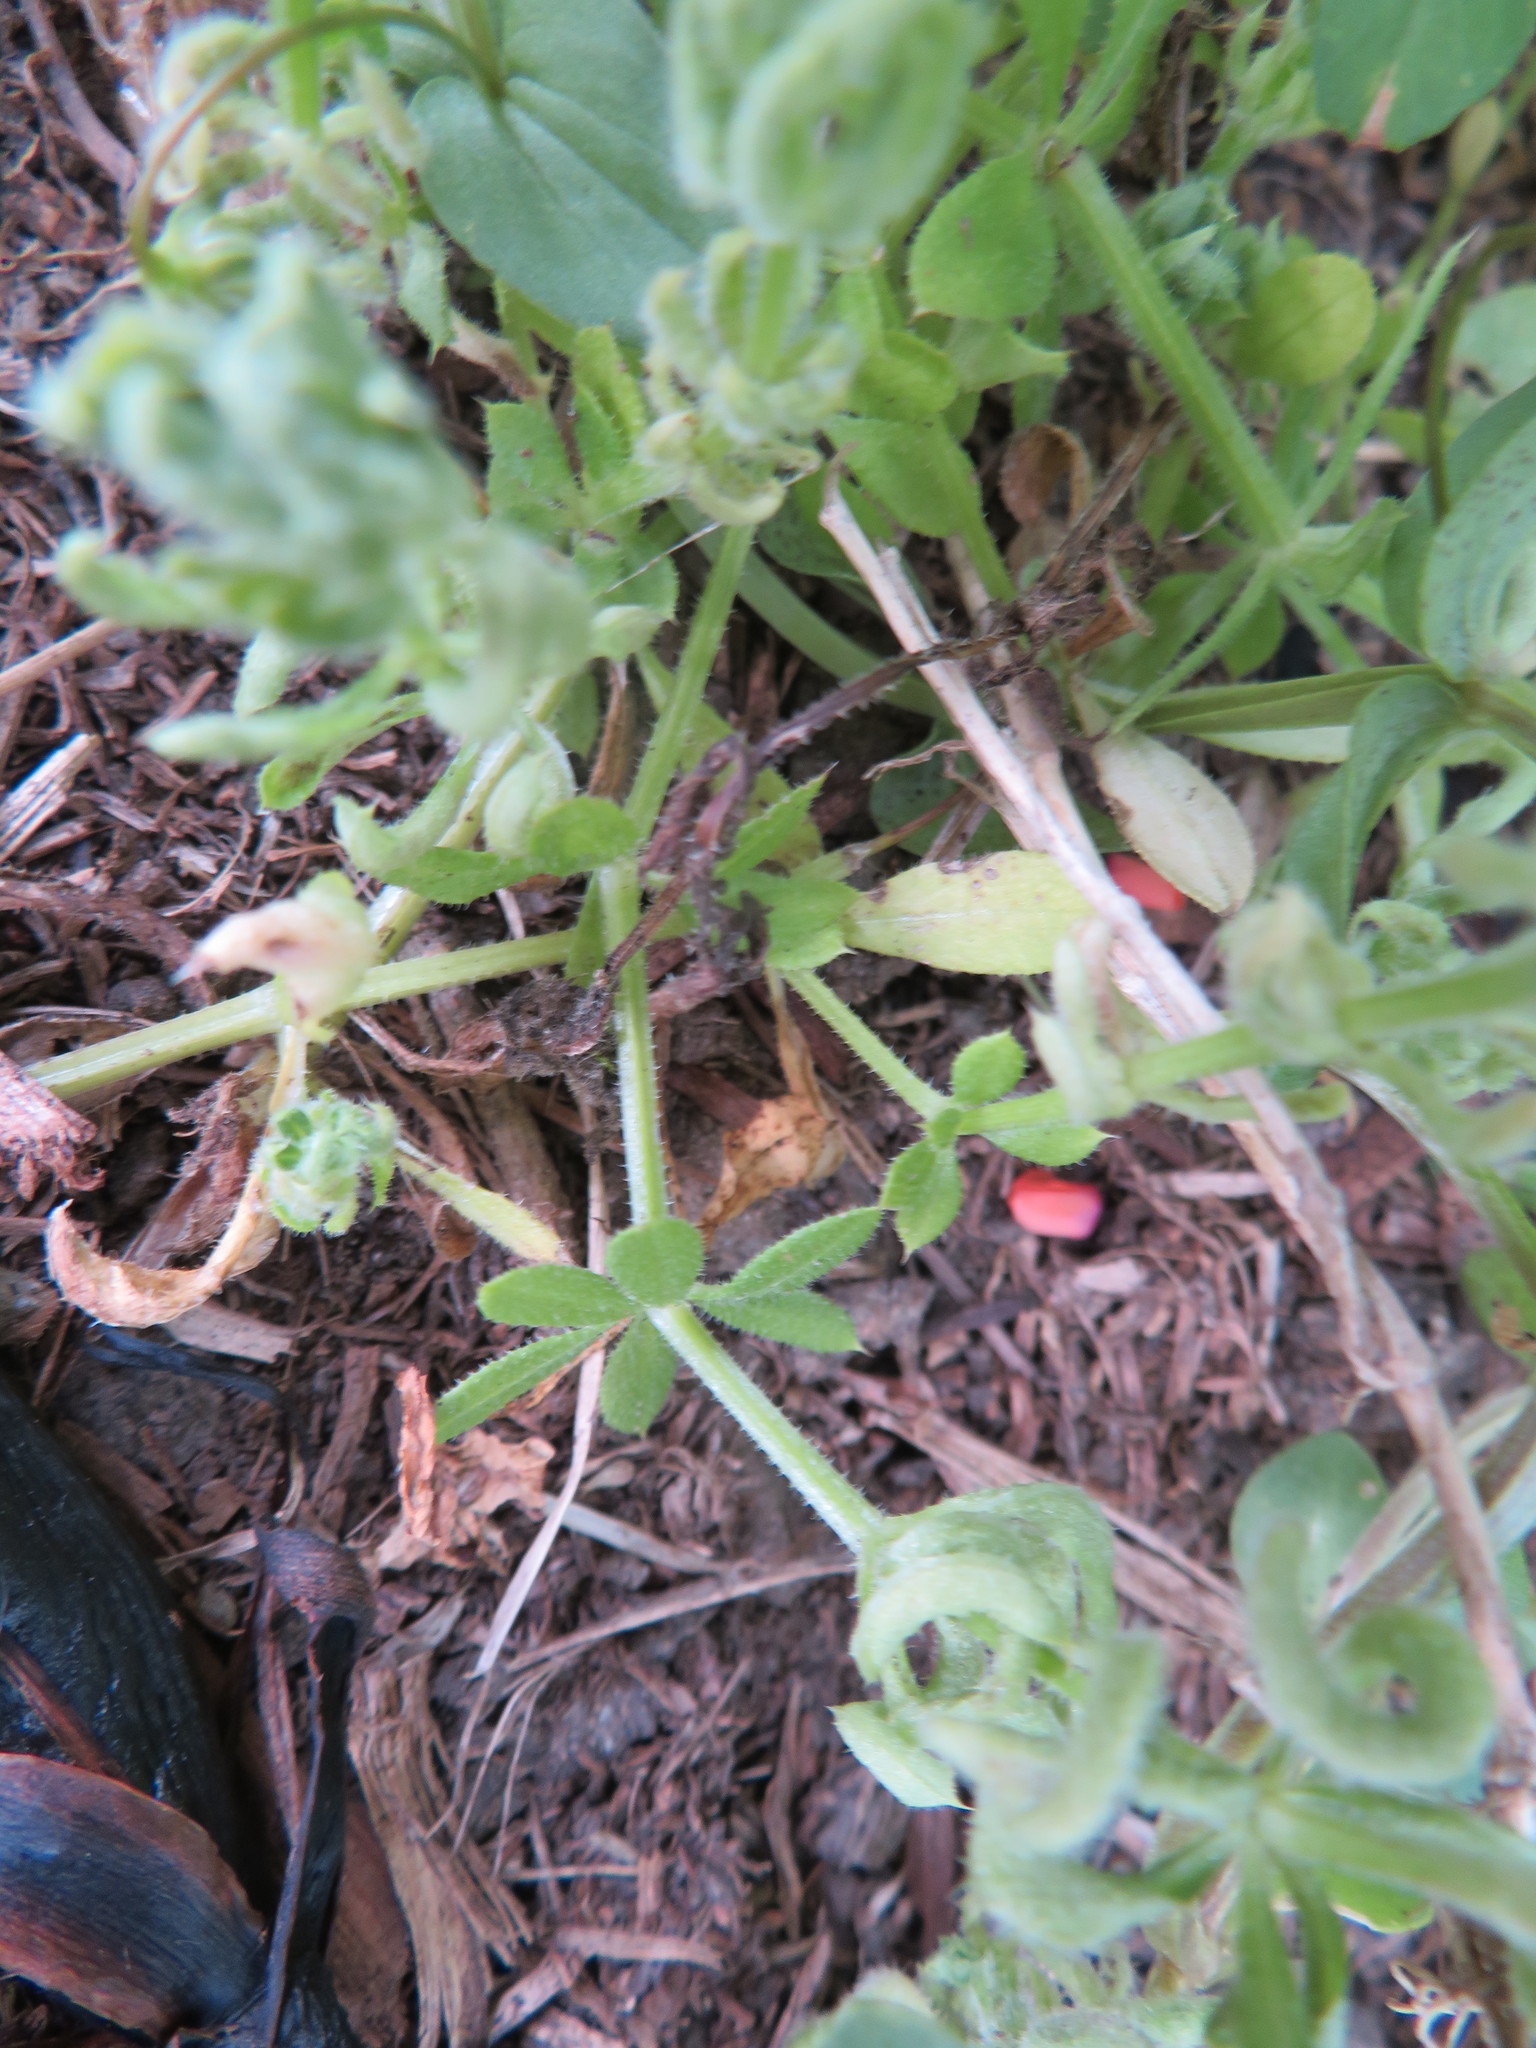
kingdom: Plantae
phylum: Tracheophyta
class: Magnoliopsida
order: Gentianales
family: Rubiaceae
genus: Galium
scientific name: Galium aparine
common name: Cleavers
